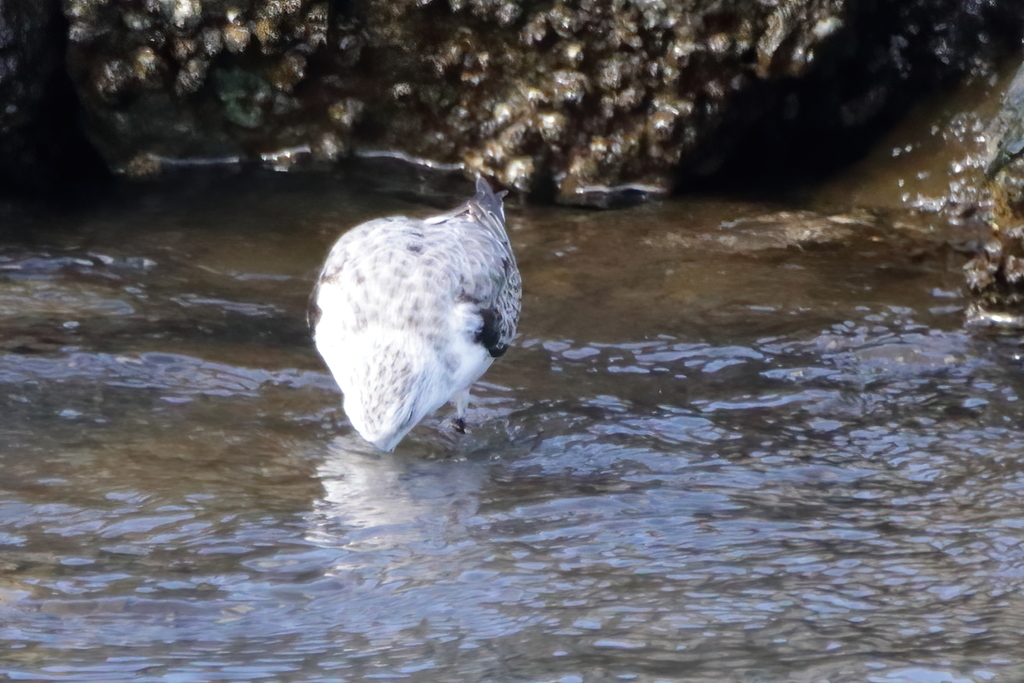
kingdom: Animalia
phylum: Chordata
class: Aves
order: Charadriiformes
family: Scolopacidae
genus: Calidris
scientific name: Calidris alba
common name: Sanderling
